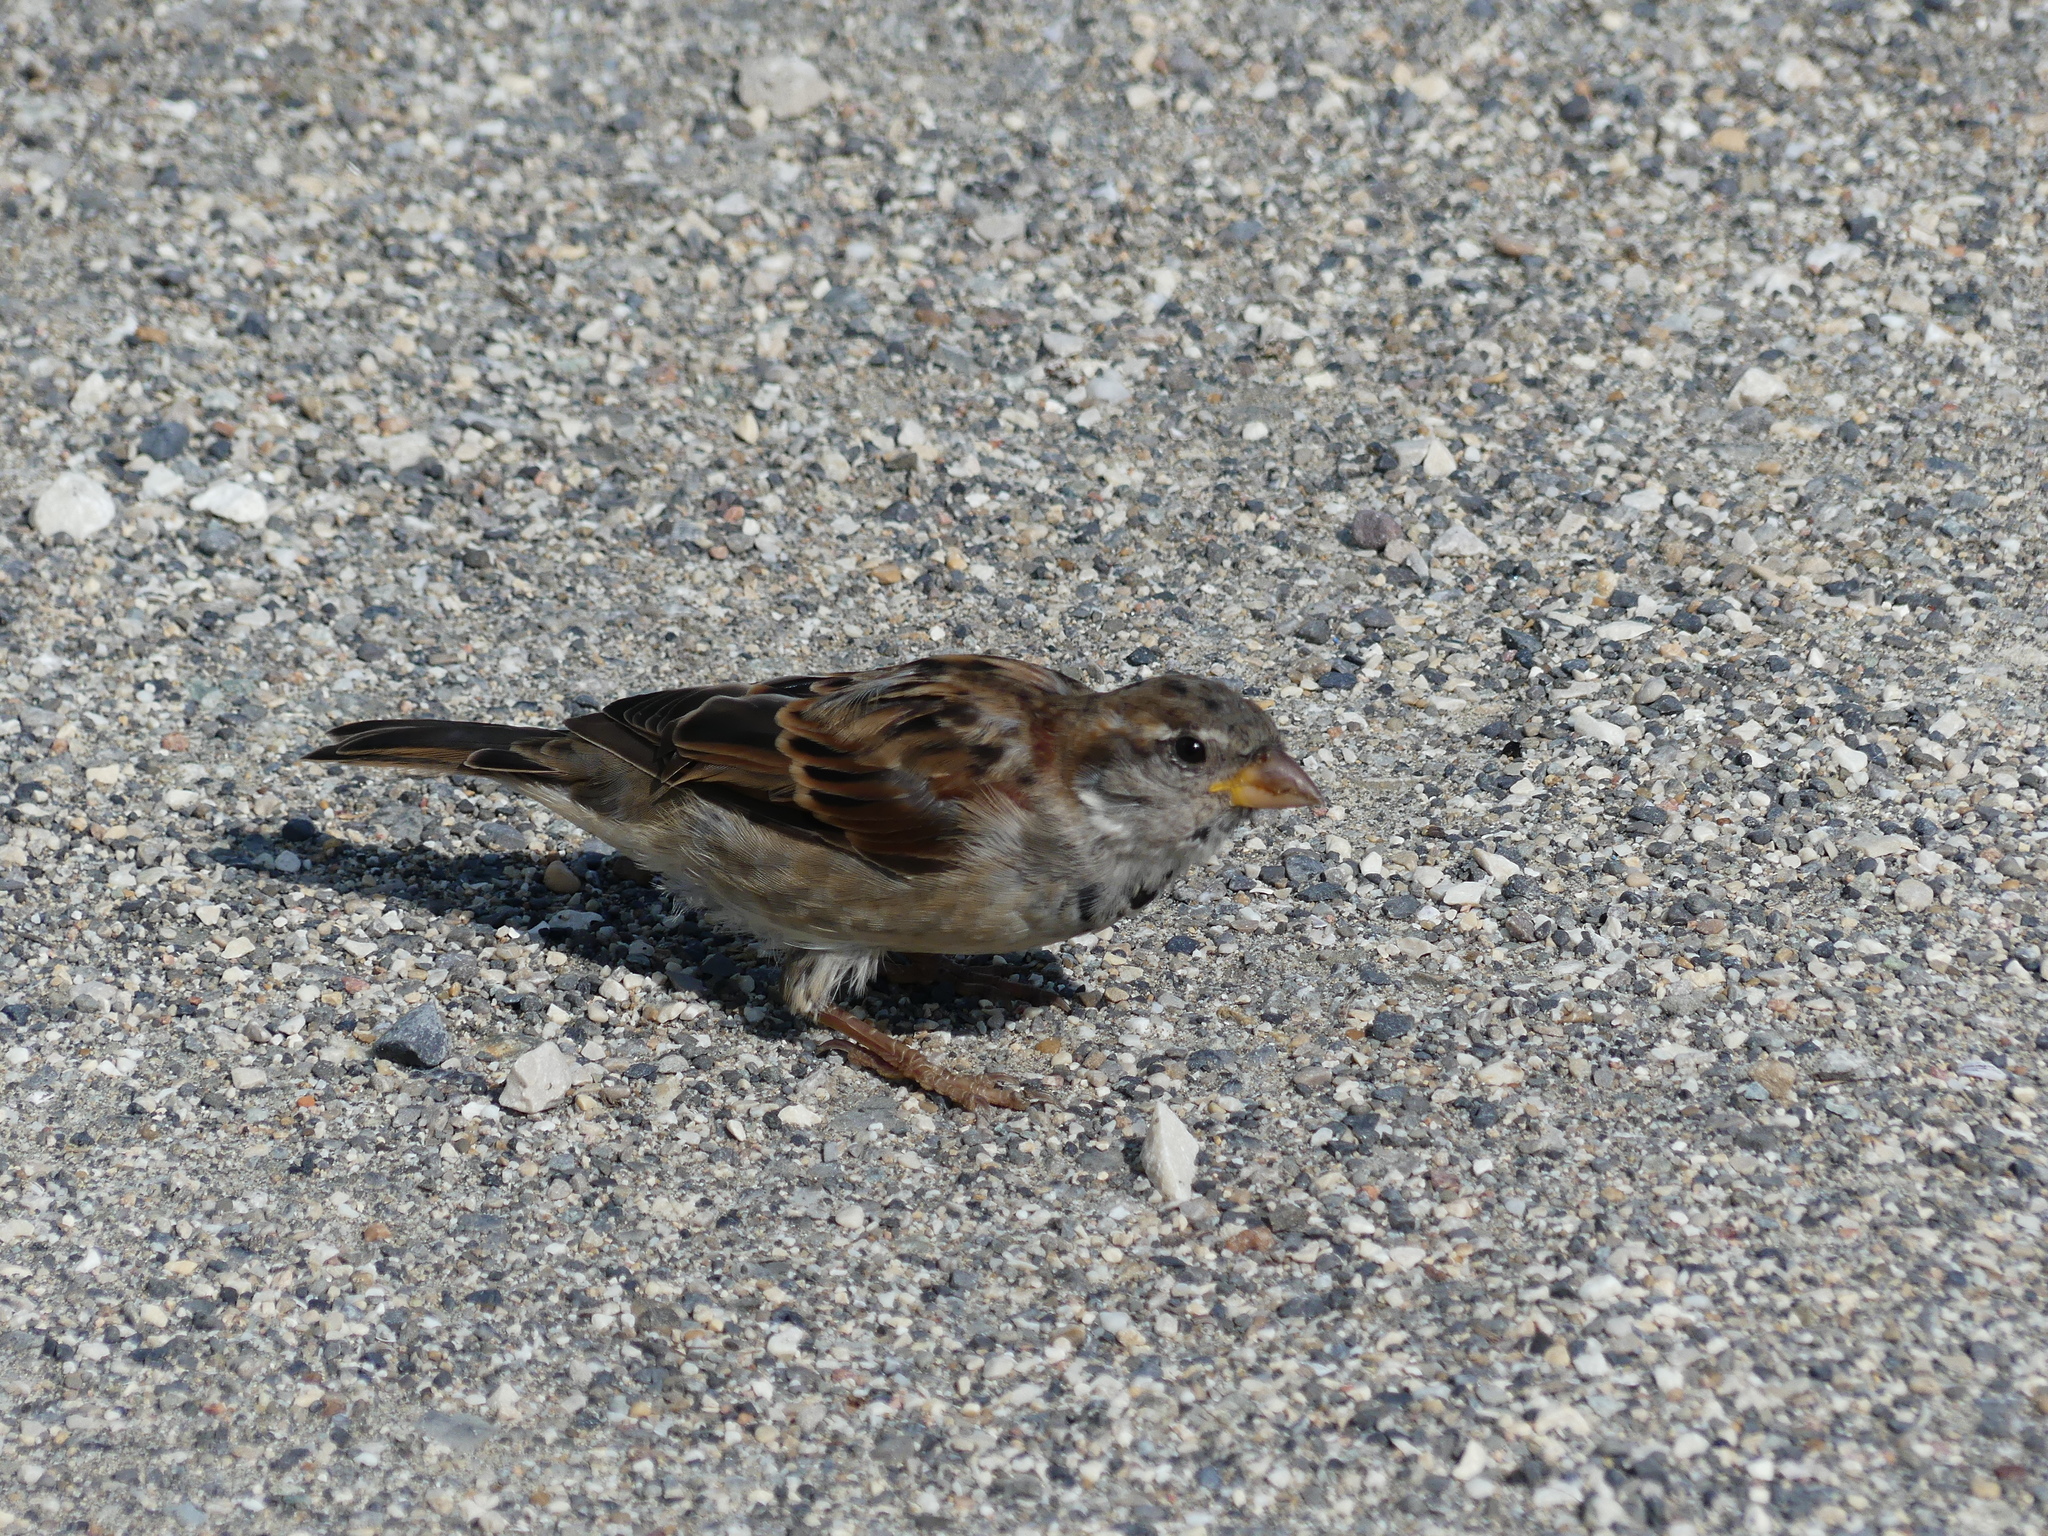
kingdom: Animalia
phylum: Chordata
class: Aves
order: Passeriformes
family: Passeridae
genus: Passer
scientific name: Passer domesticus
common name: House sparrow
